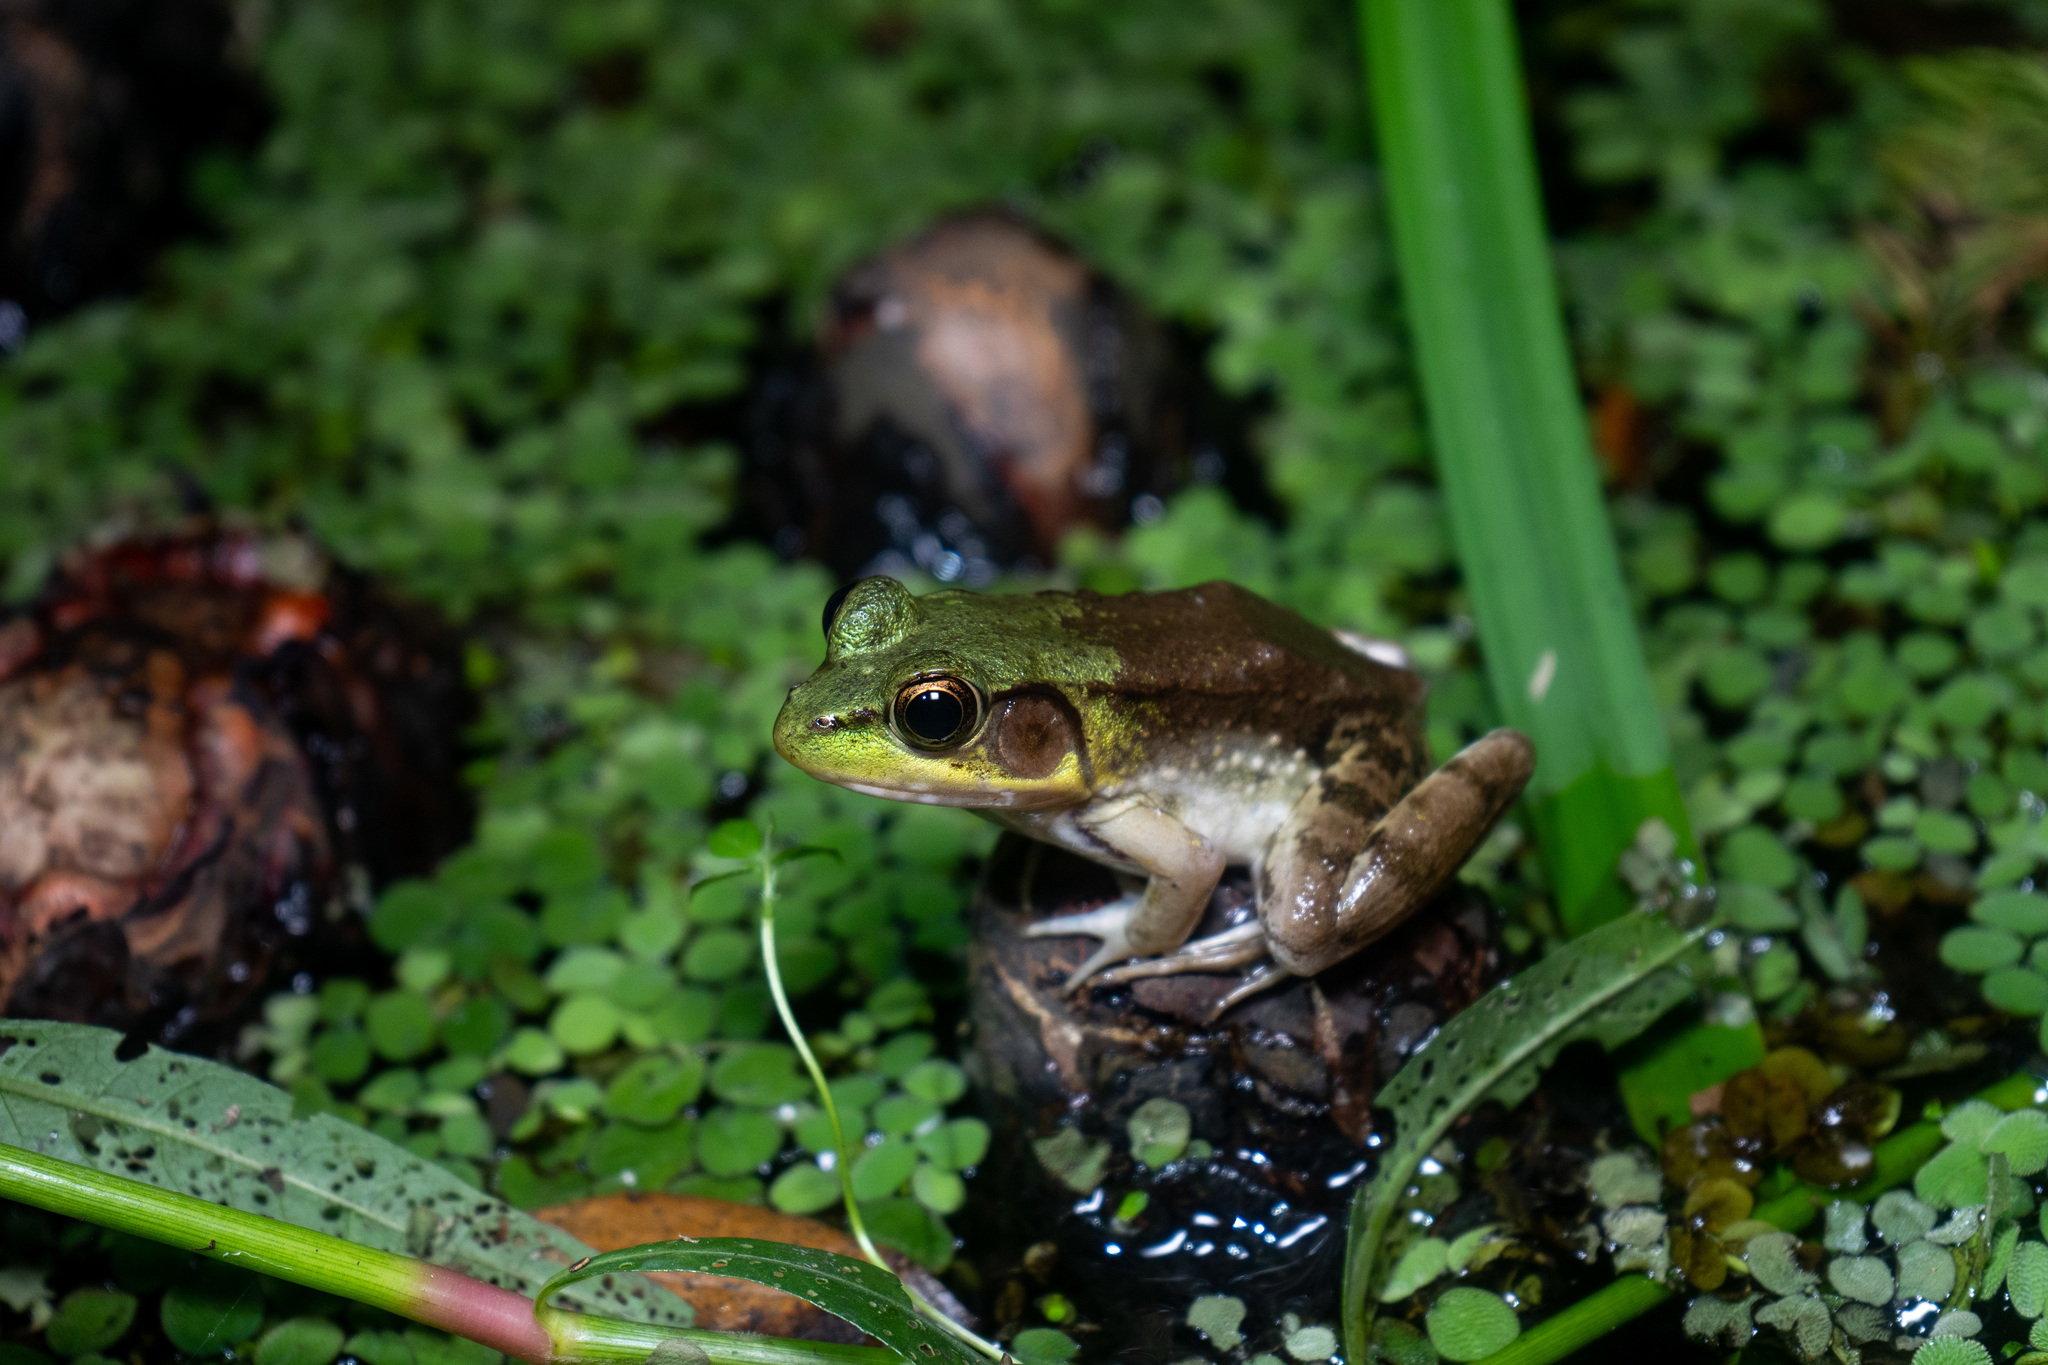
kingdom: Animalia
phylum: Chordata
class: Amphibia
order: Anura
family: Ranidae
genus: Lithobates
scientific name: Lithobates clamitans
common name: Green frog
